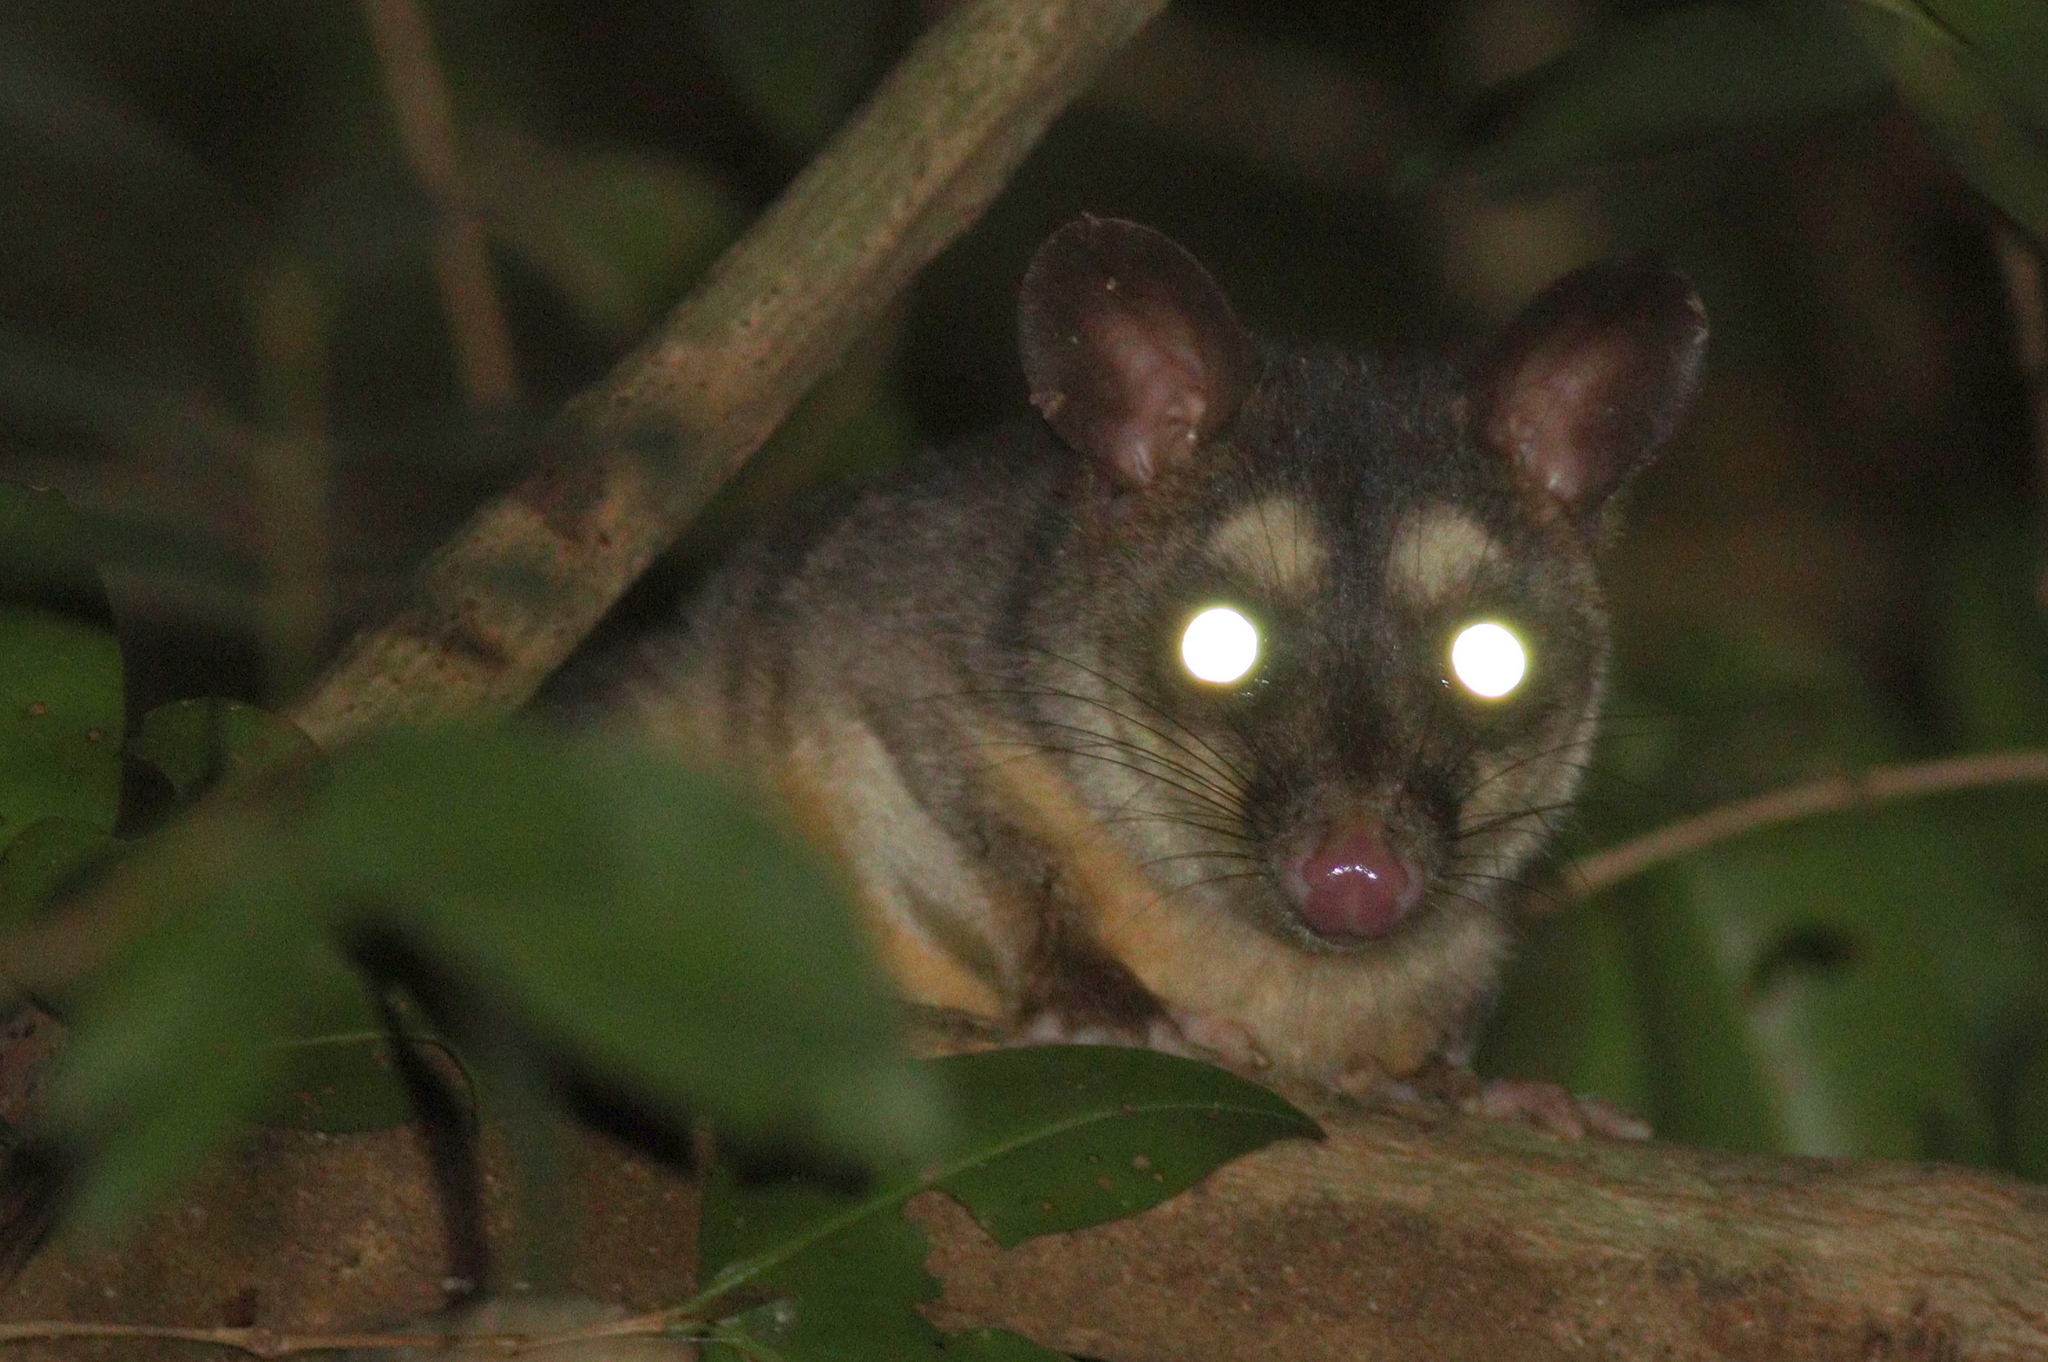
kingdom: Animalia
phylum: Chordata
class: Mammalia
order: Didelphimorphia
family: Didelphidae
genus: Philander
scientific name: Philander
